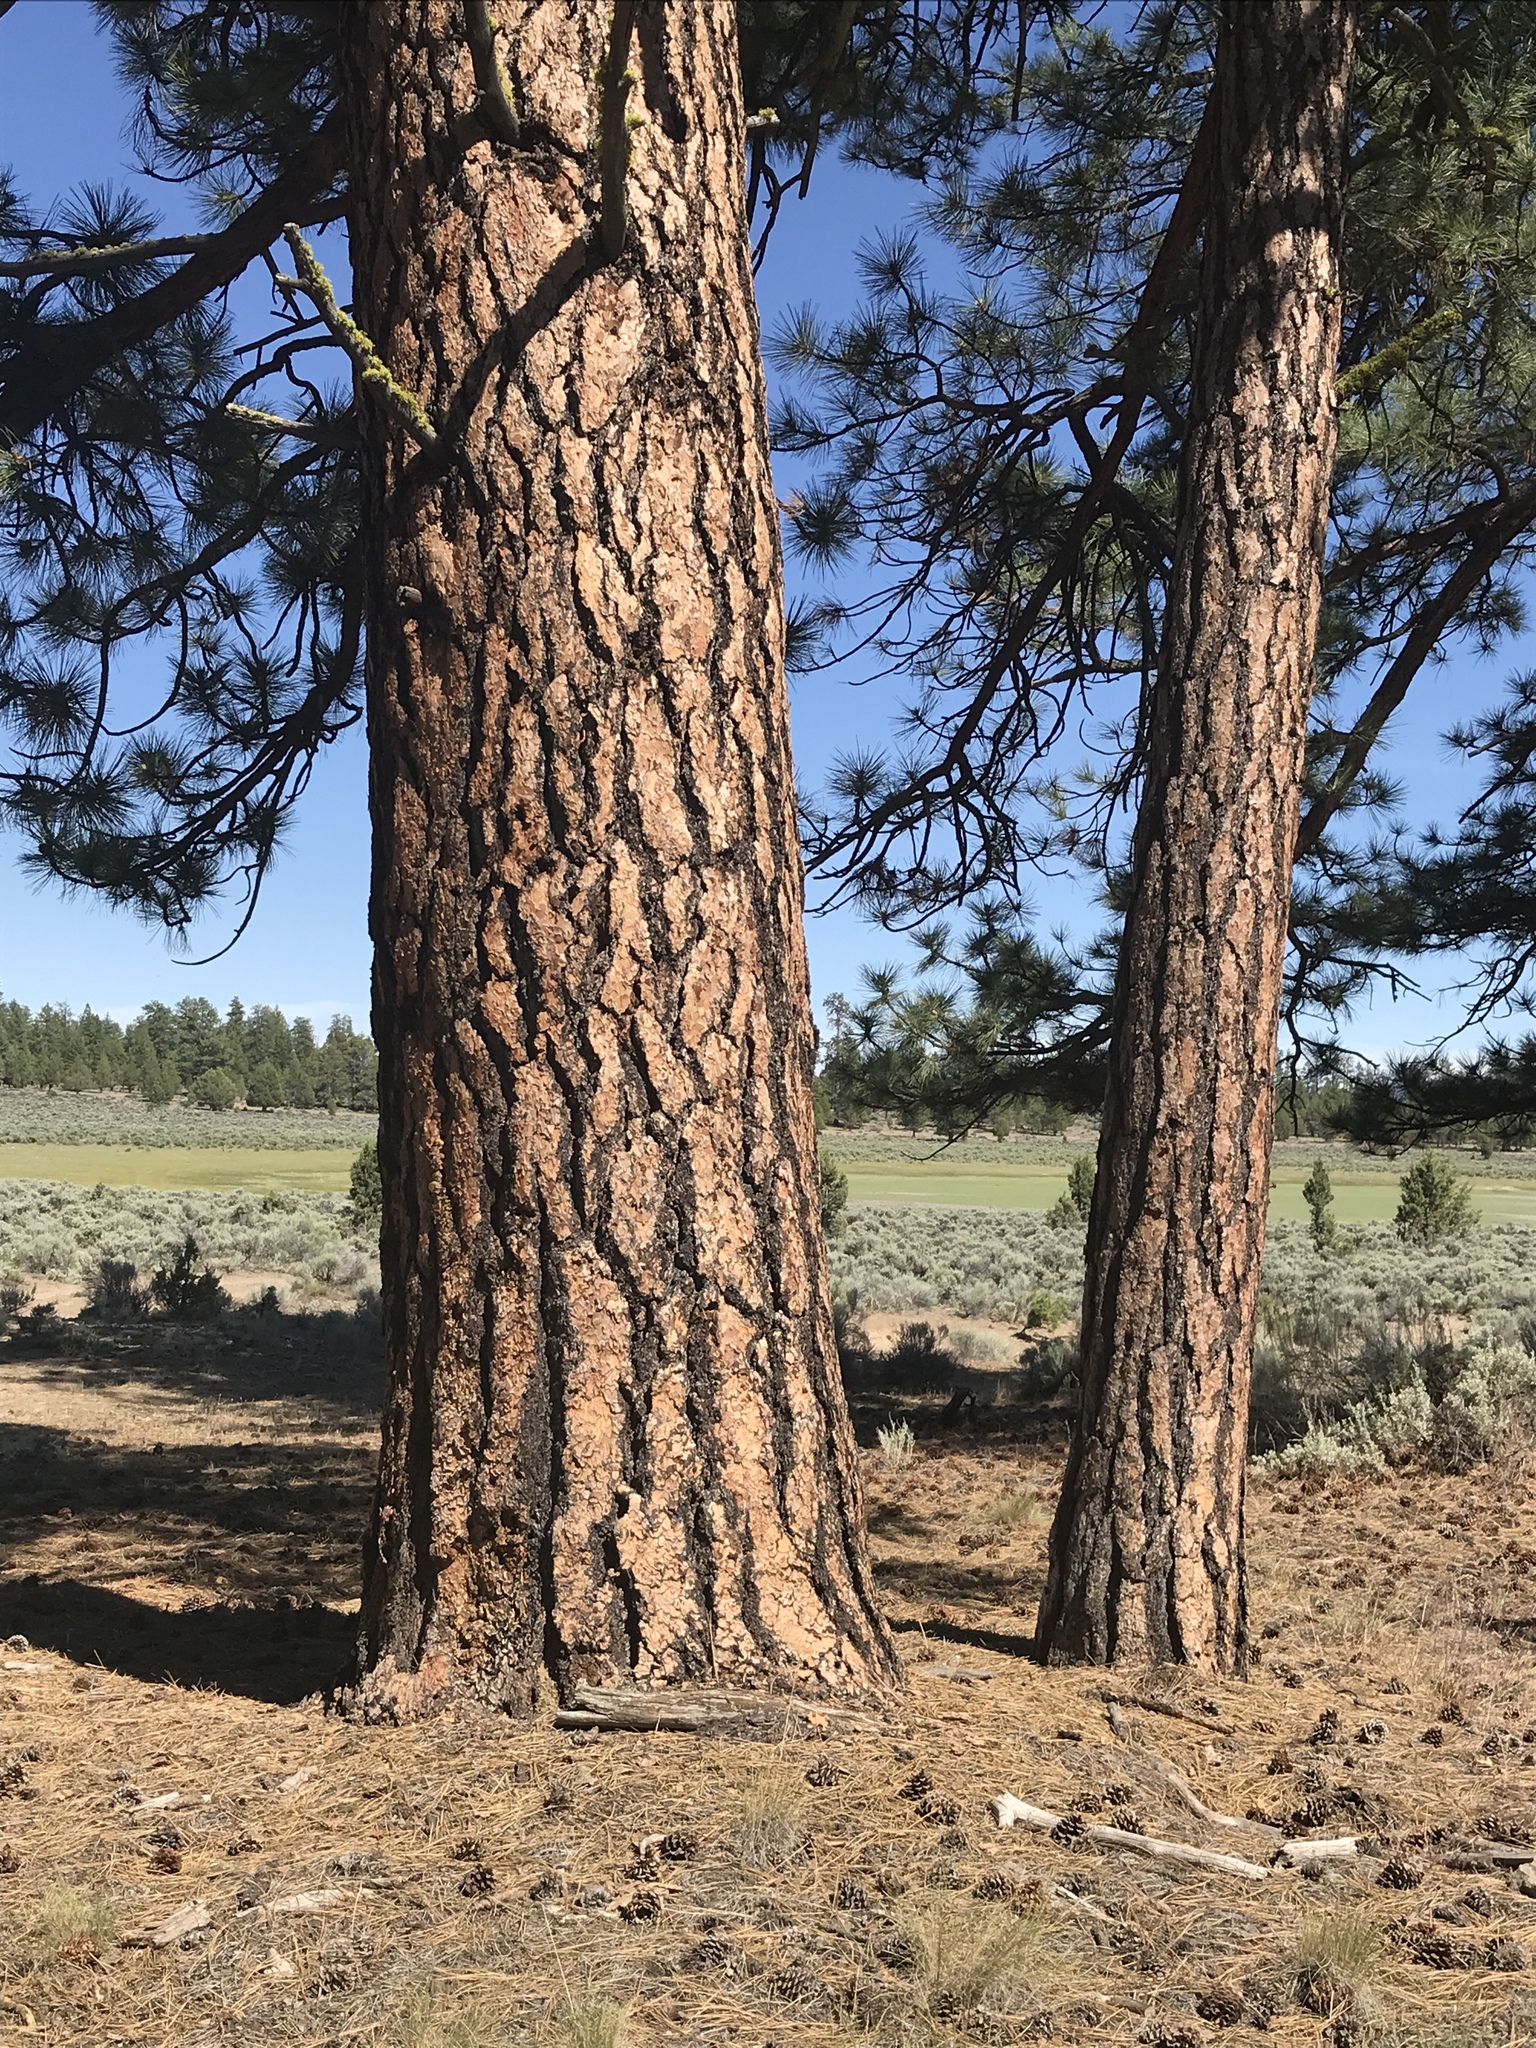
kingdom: Plantae
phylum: Tracheophyta
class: Pinopsida
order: Pinales
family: Pinaceae
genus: Pinus
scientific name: Pinus ponderosa
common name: Western yellow-pine
